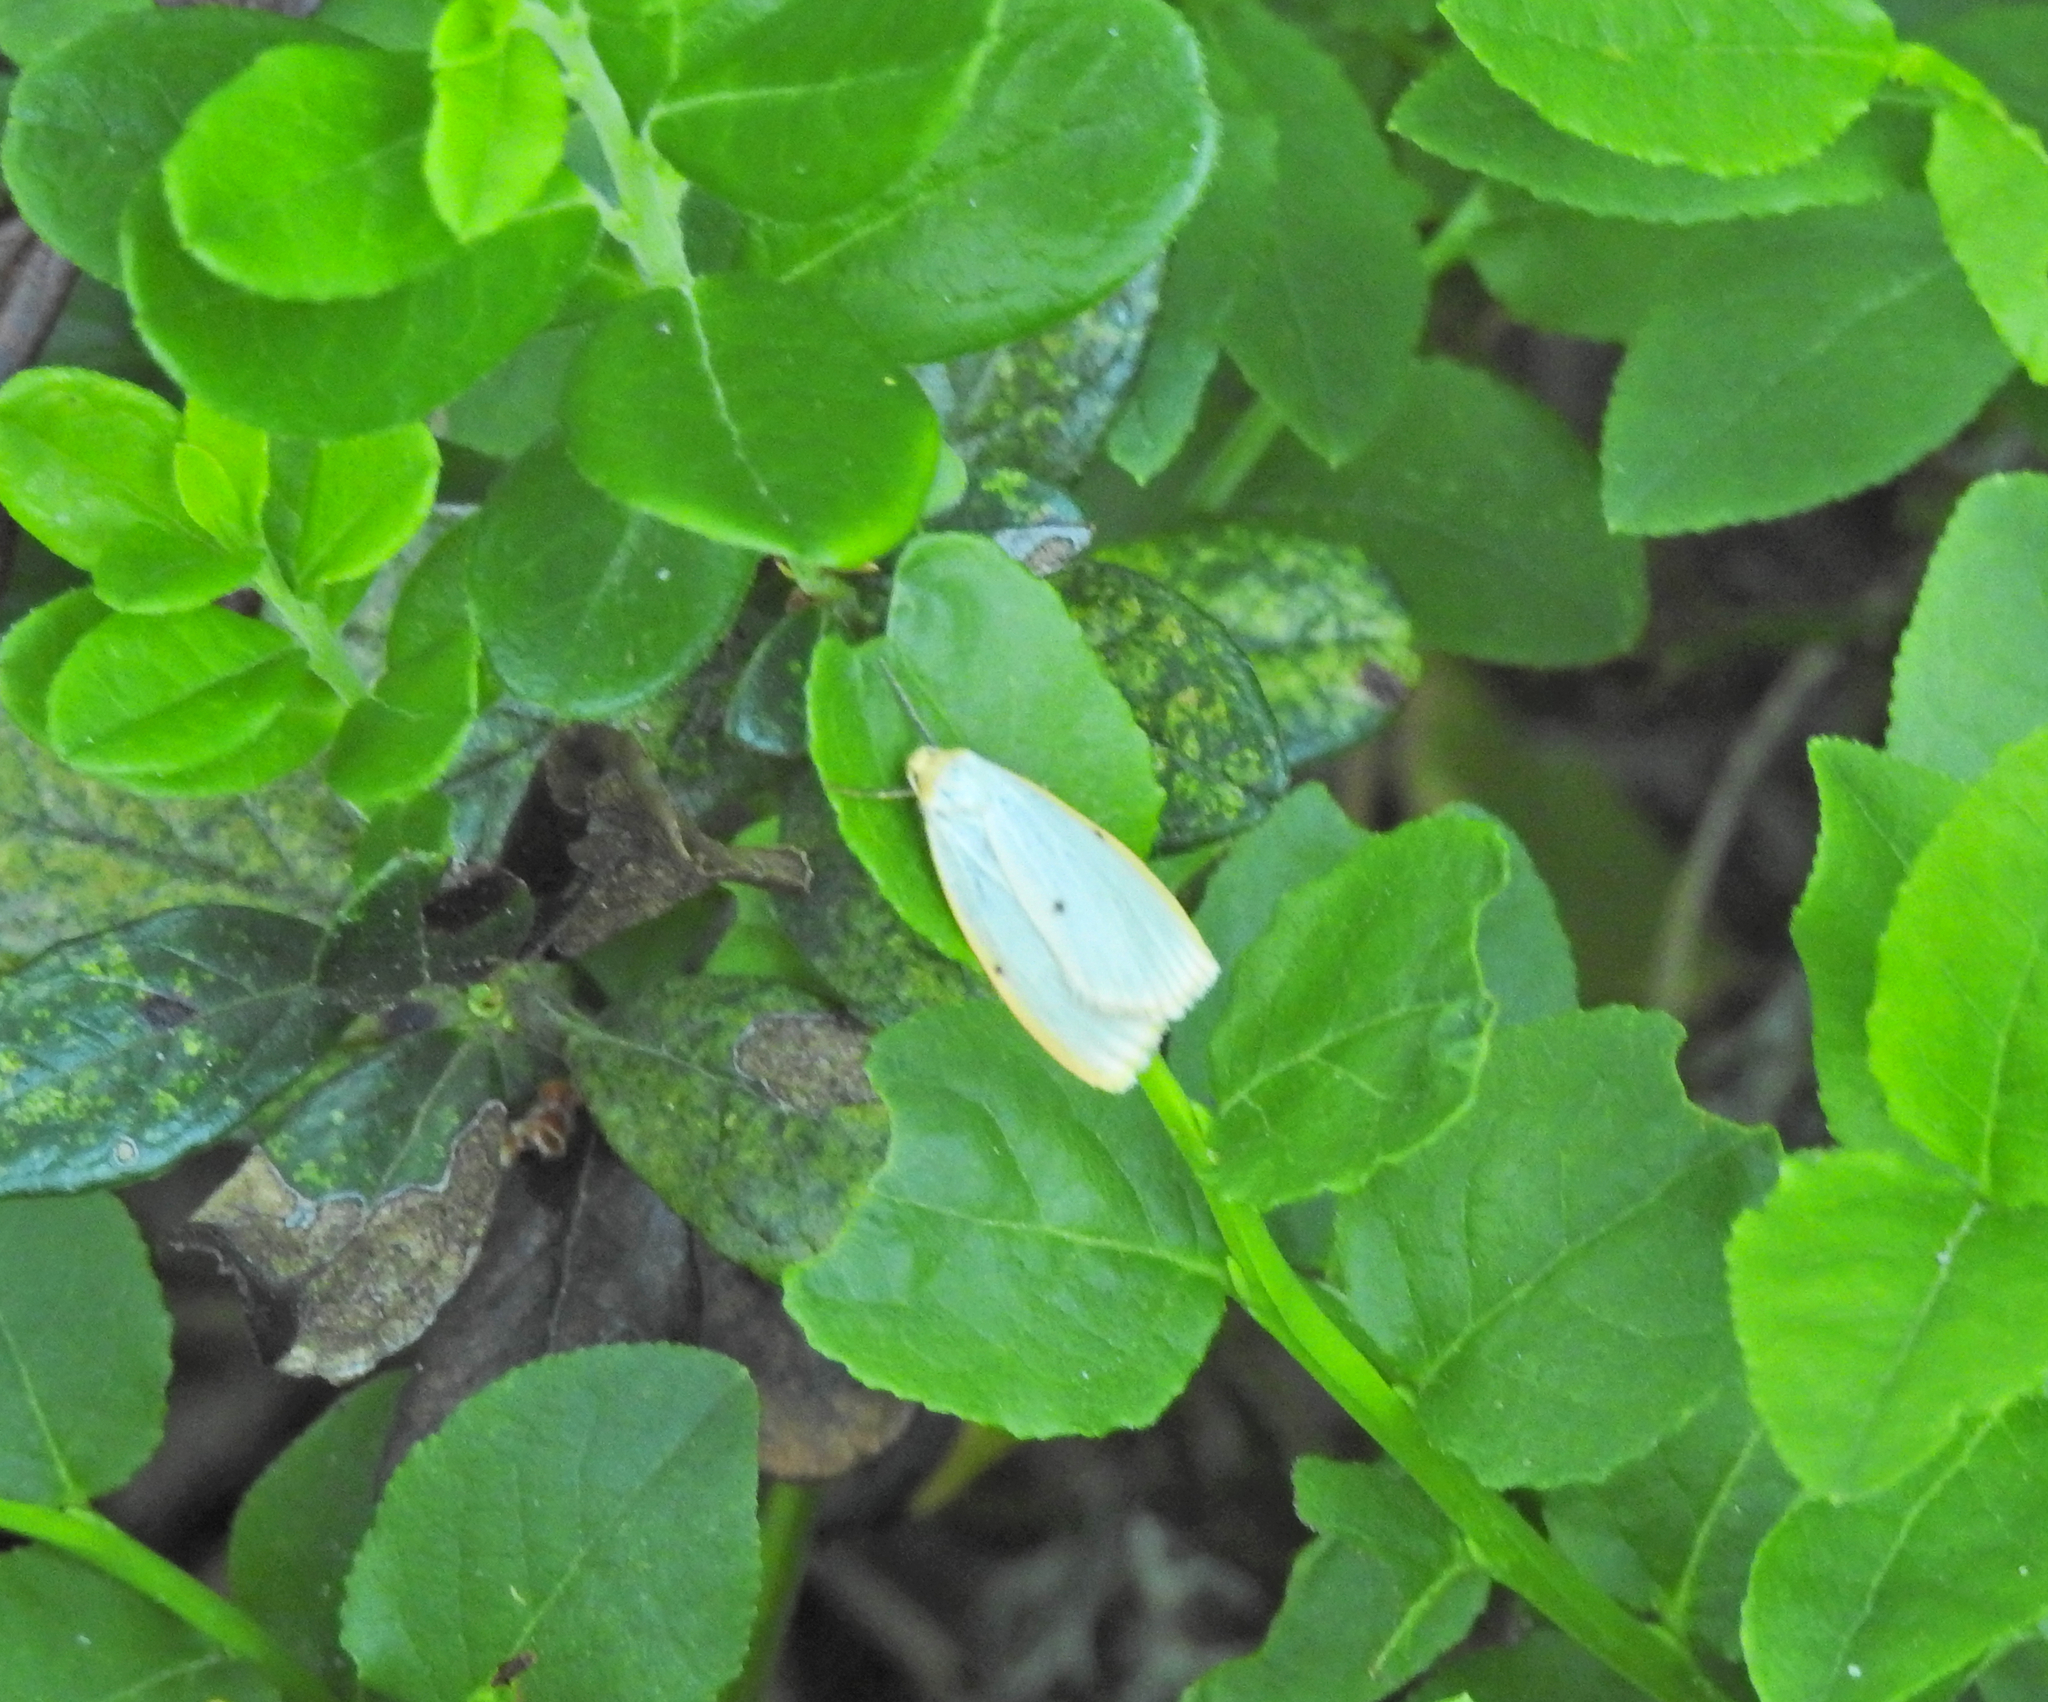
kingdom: Animalia
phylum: Arthropoda
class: Insecta
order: Lepidoptera
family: Erebidae
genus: Cybosia
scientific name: Cybosia mesomella
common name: Four-dotted footman
